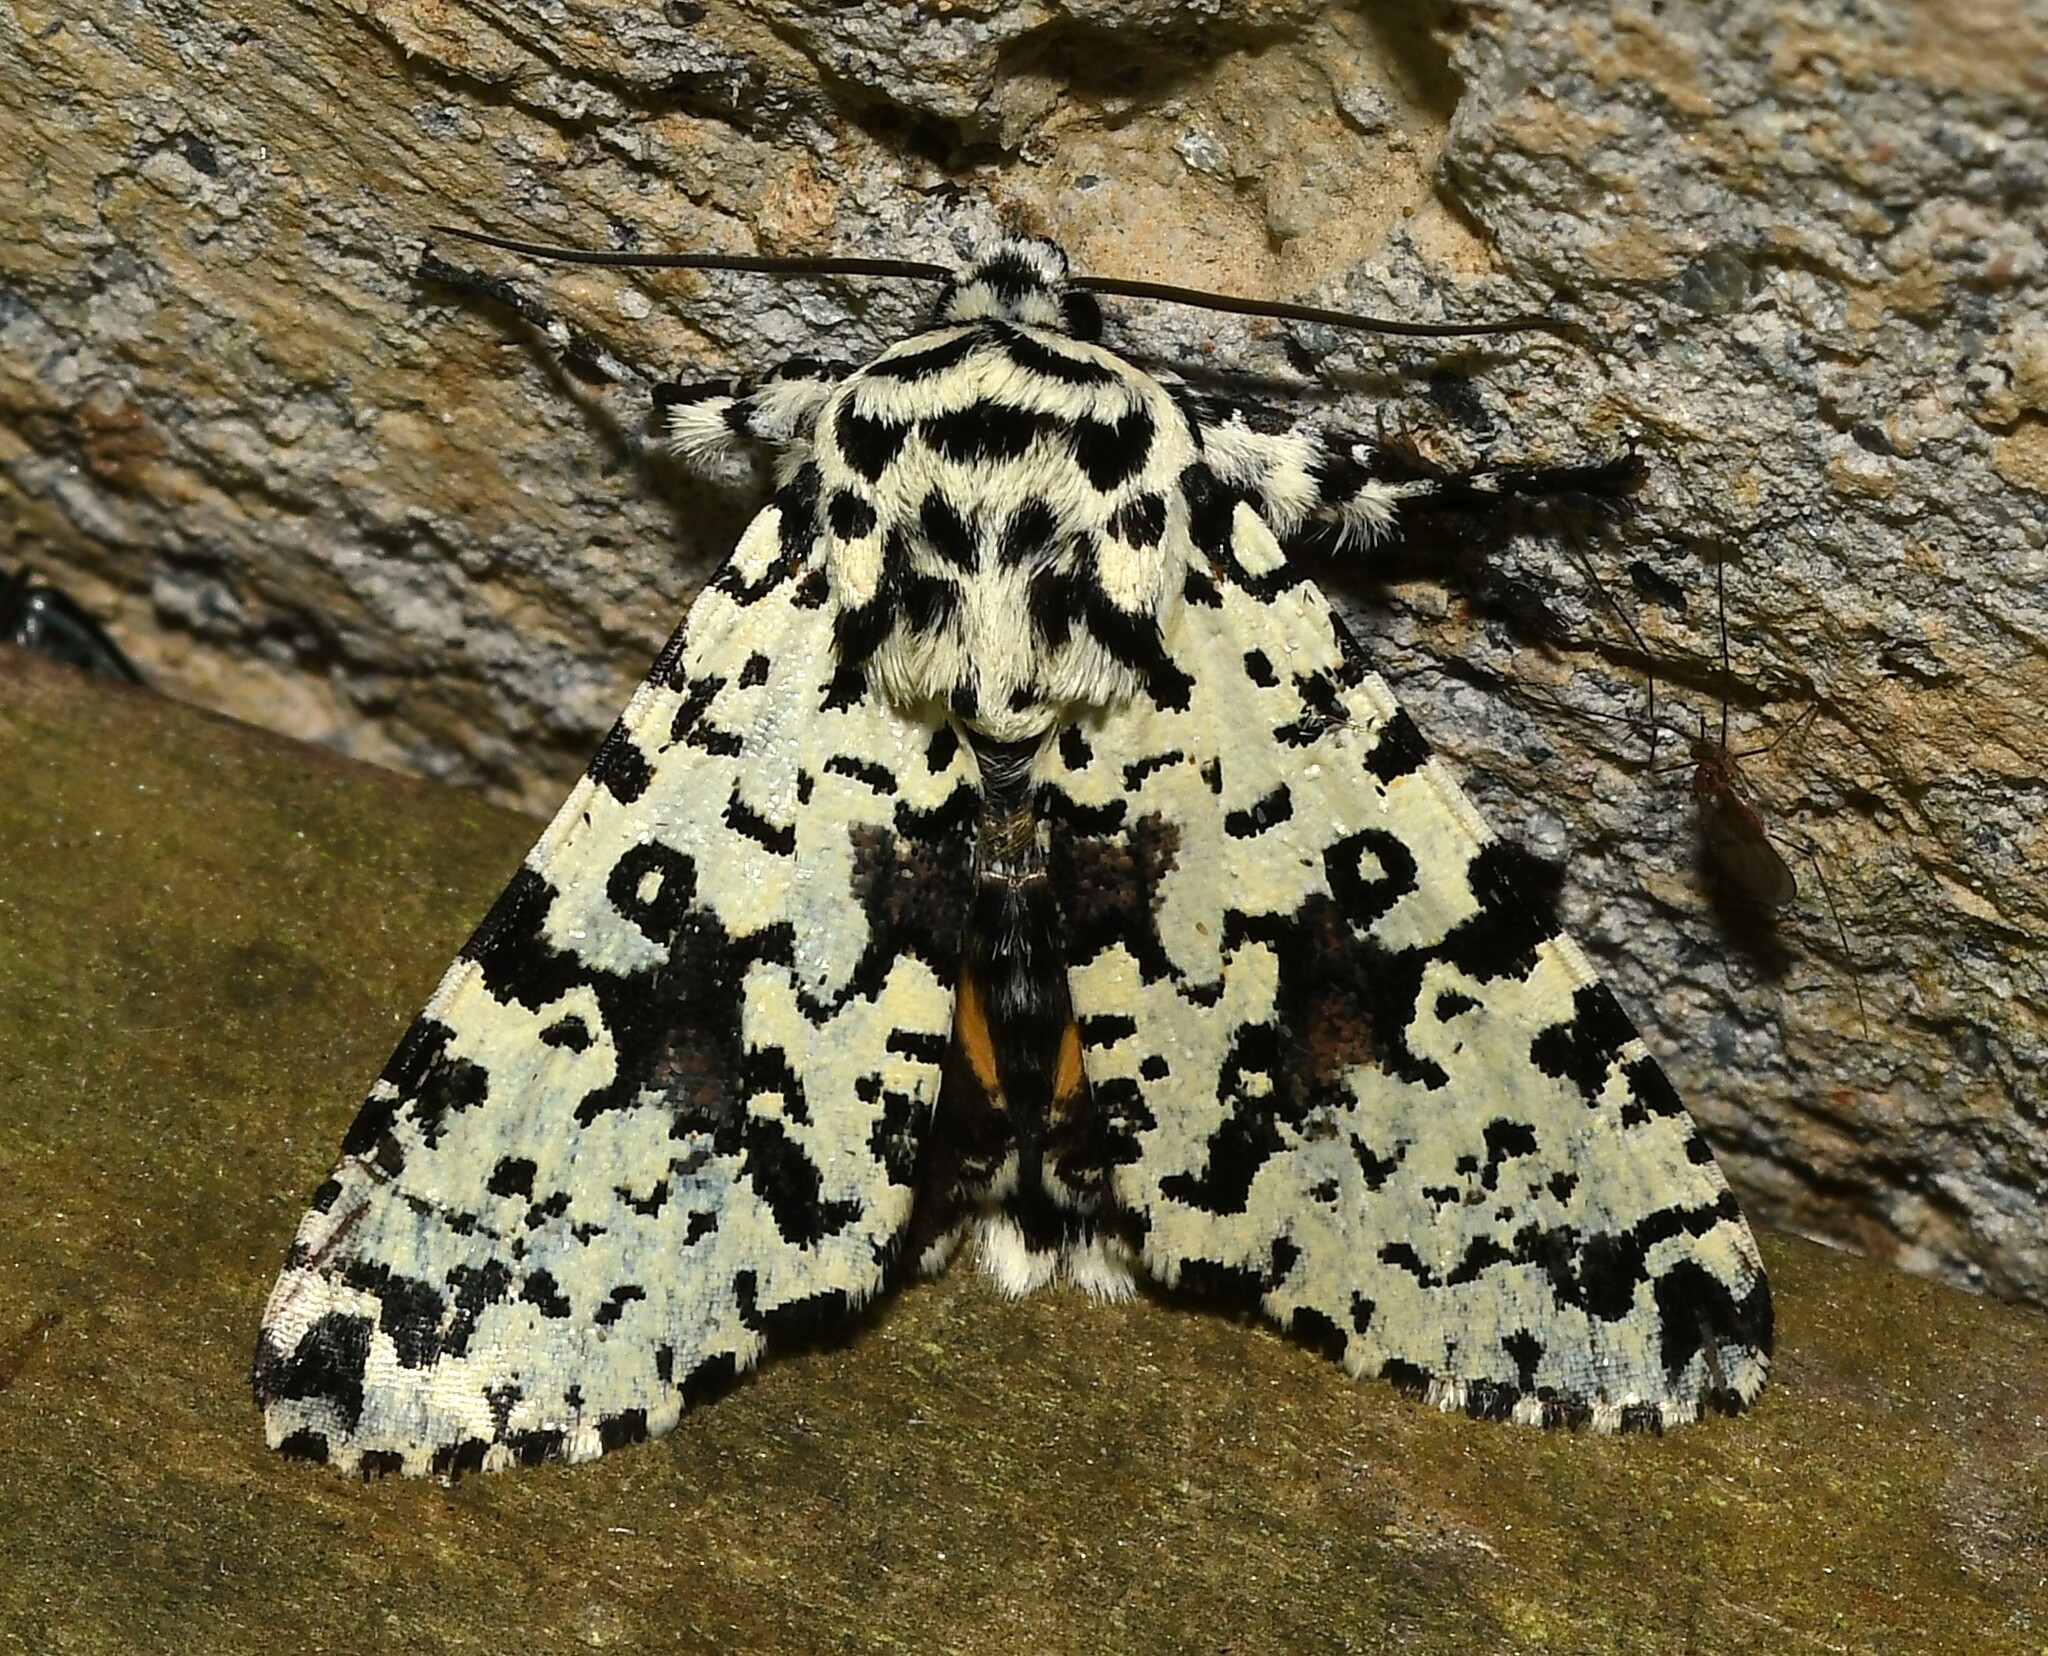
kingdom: Animalia
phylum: Arthropoda
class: Insecta
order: Lepidoptera
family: Noctuidae
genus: Lichnoptera
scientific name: Lichnoptera moesta
